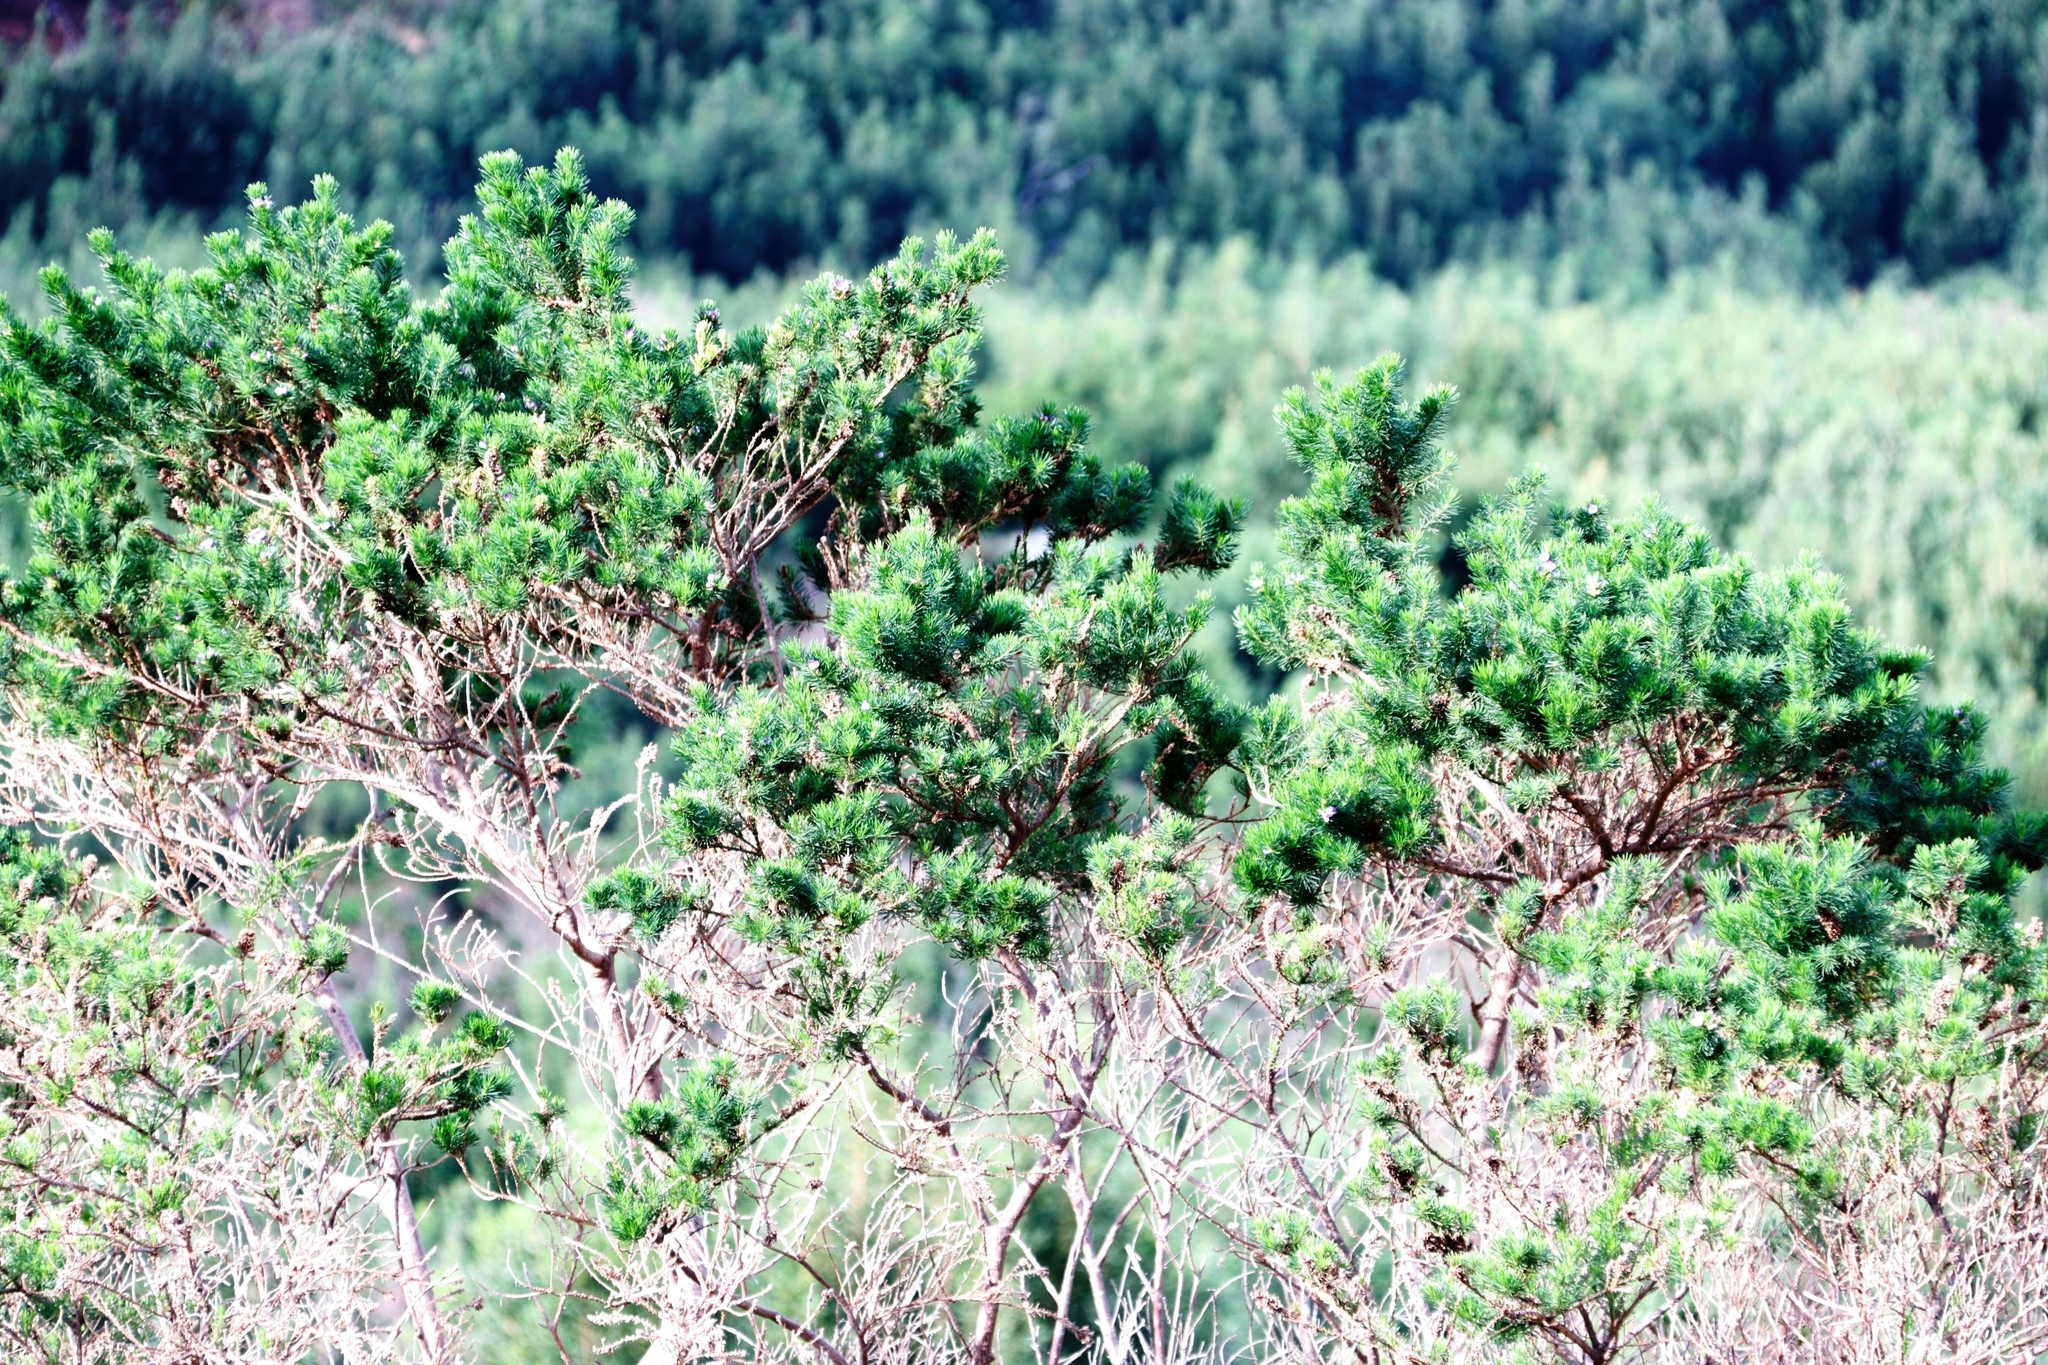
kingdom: Plantae
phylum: Tracheophyta
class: Magnoliopsida
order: Fabales
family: Fabaceae
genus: Psoralea
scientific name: Psoralea pinnata
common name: African scurfpea
